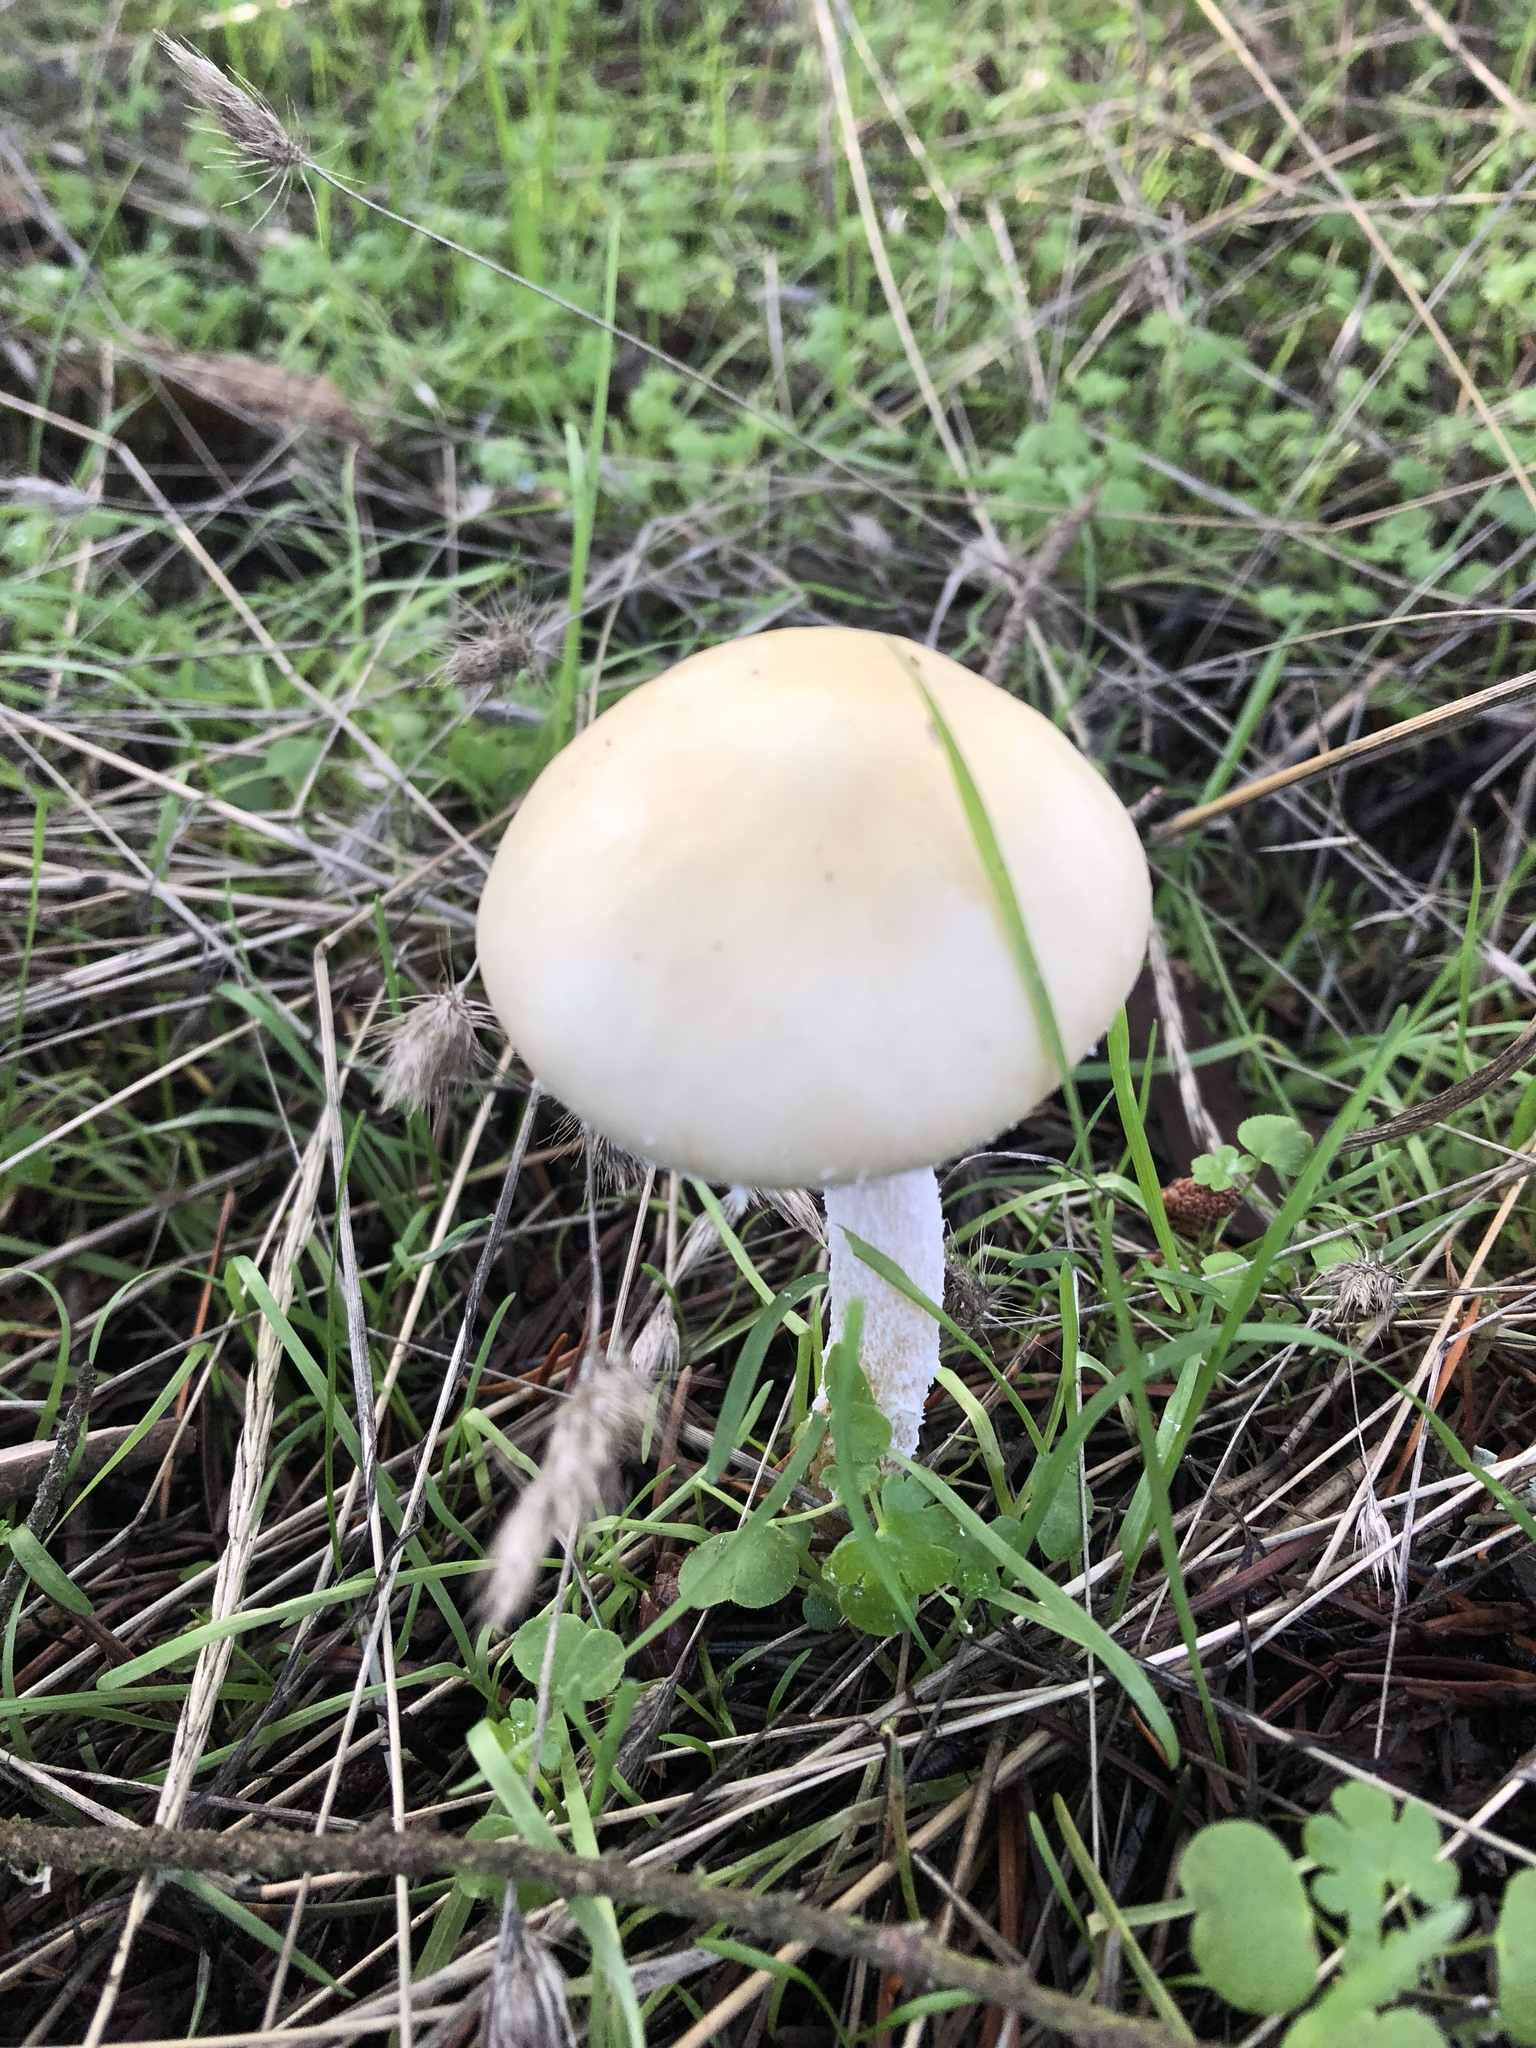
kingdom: Fungi
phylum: Basidiomycota
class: Agaricomycetes
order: Agaricales
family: Strophariaceae
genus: Stropharia
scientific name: Stropharia ambigua
